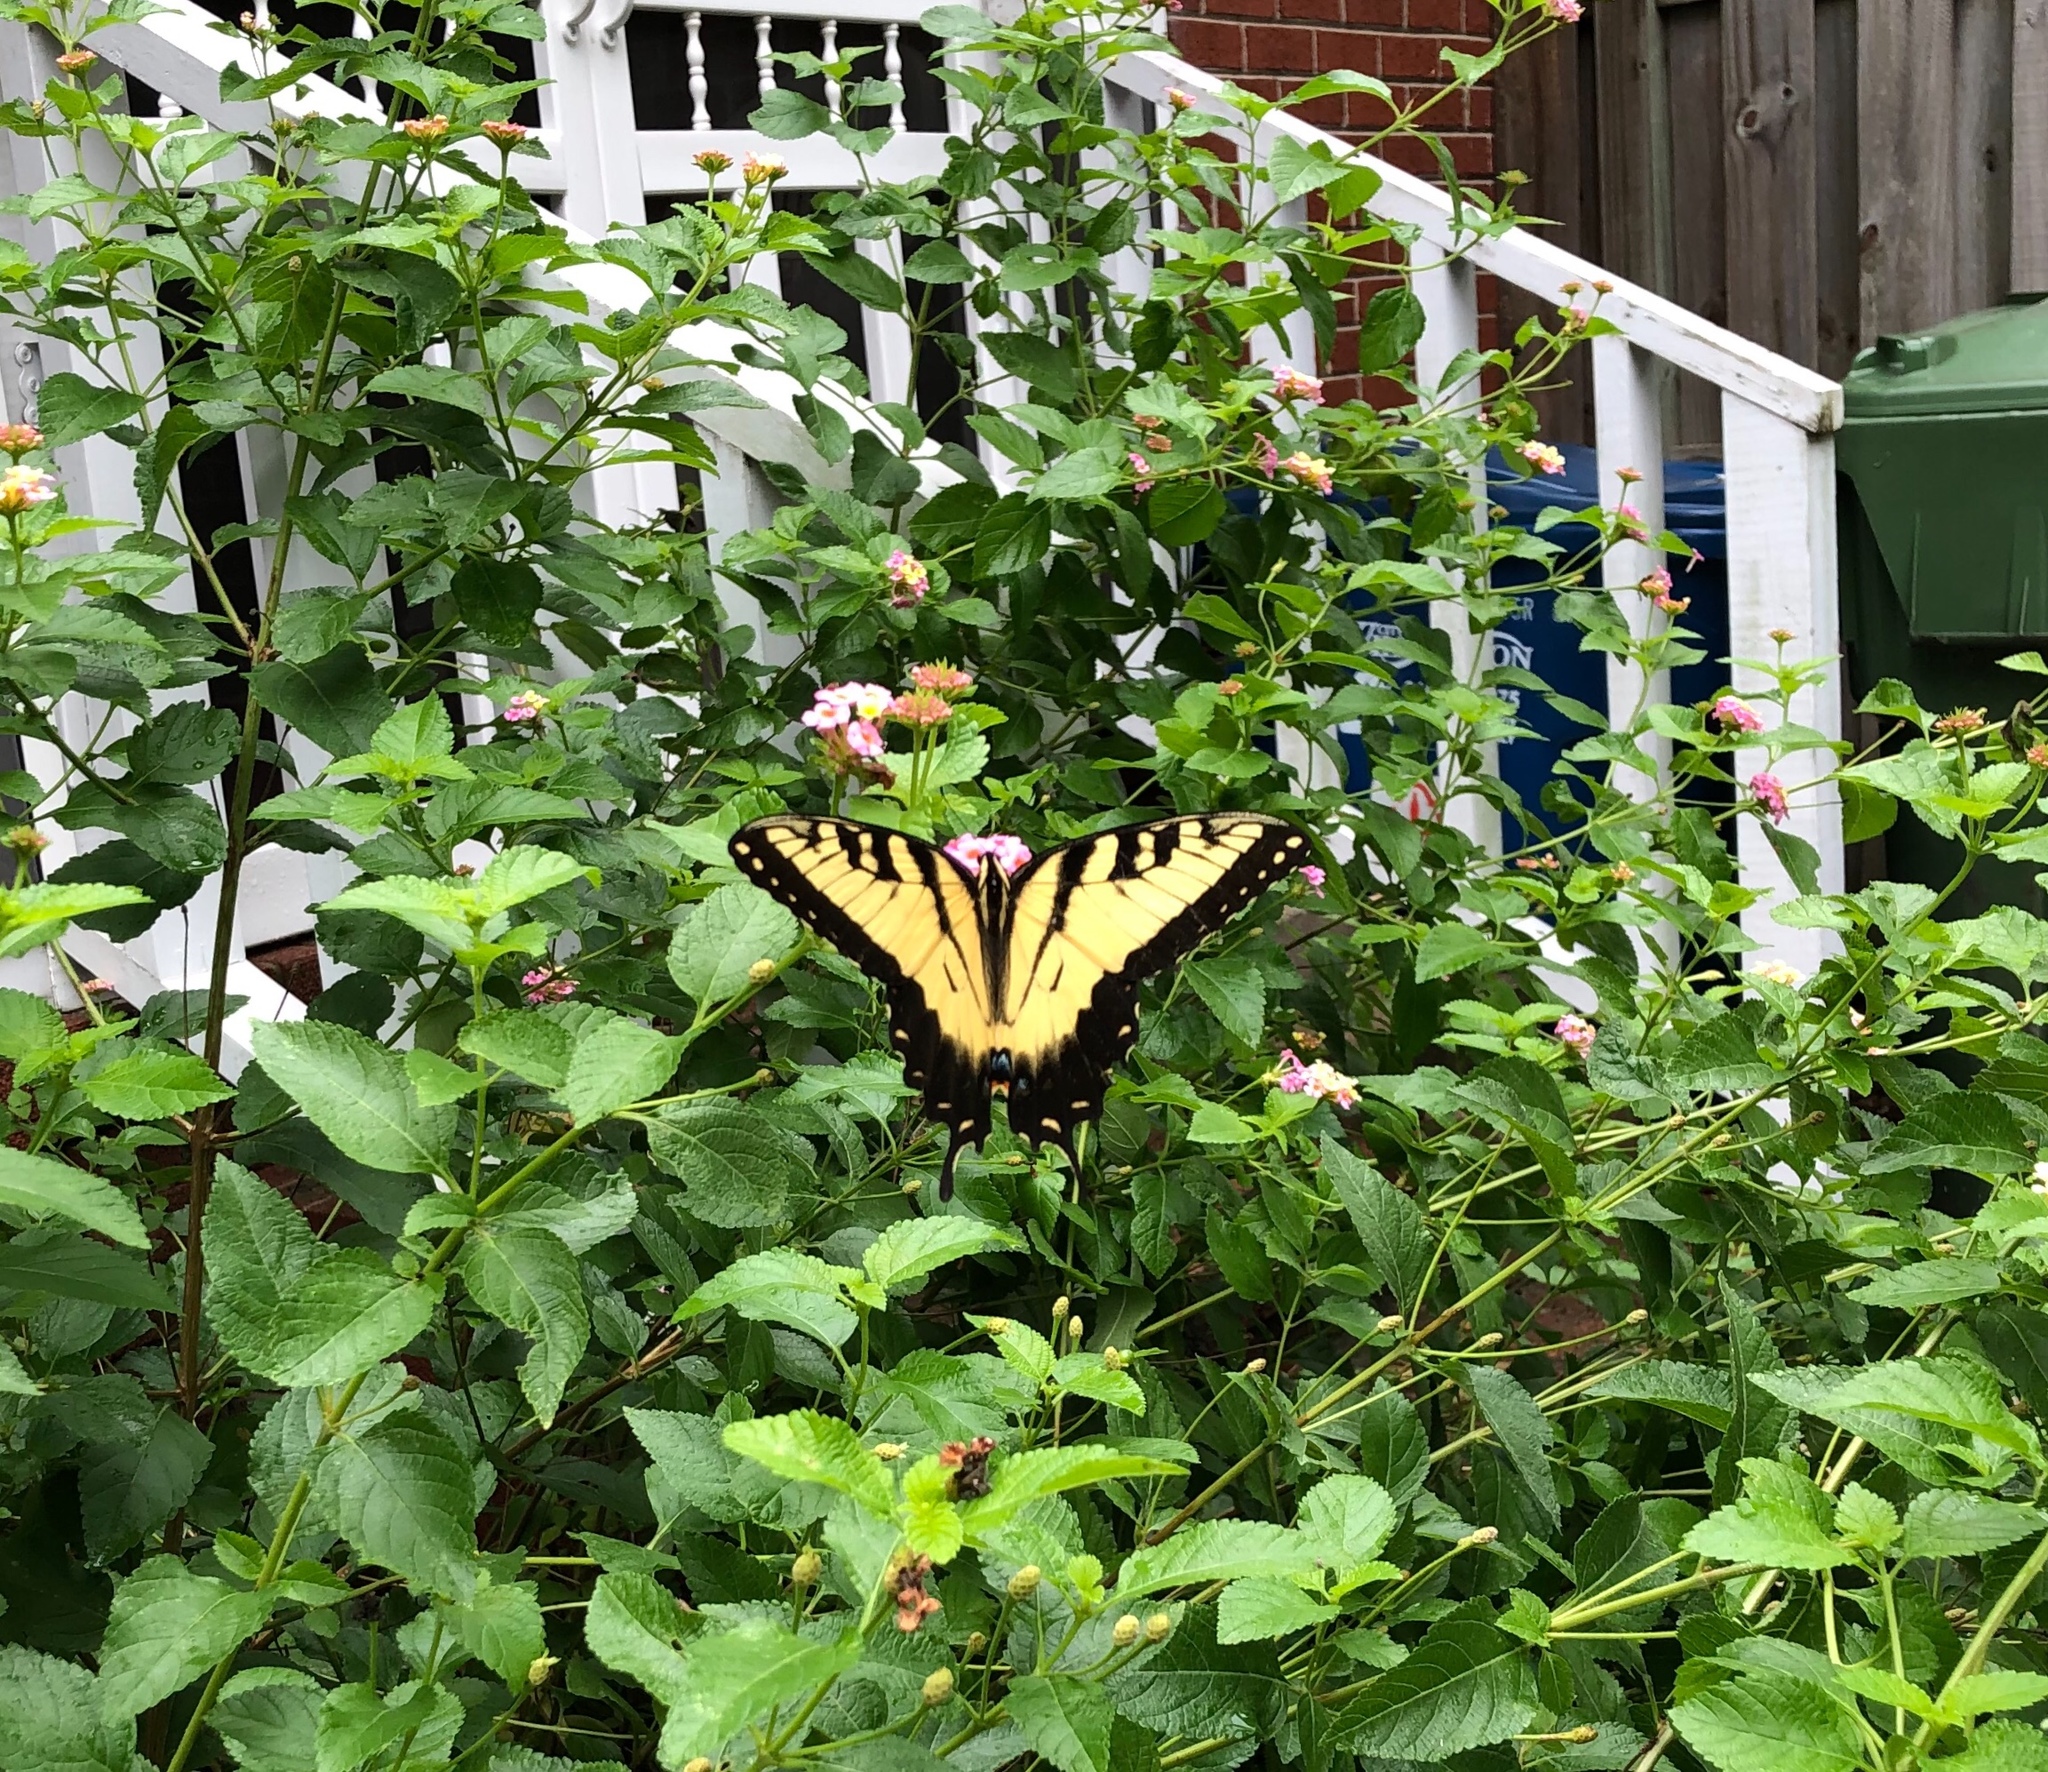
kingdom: Animalia
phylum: Arthropoda
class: Insecta
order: Lepidoptera
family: Papilionidae
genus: Papilio
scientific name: Papilio glaucus
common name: Tiger swallowtail
